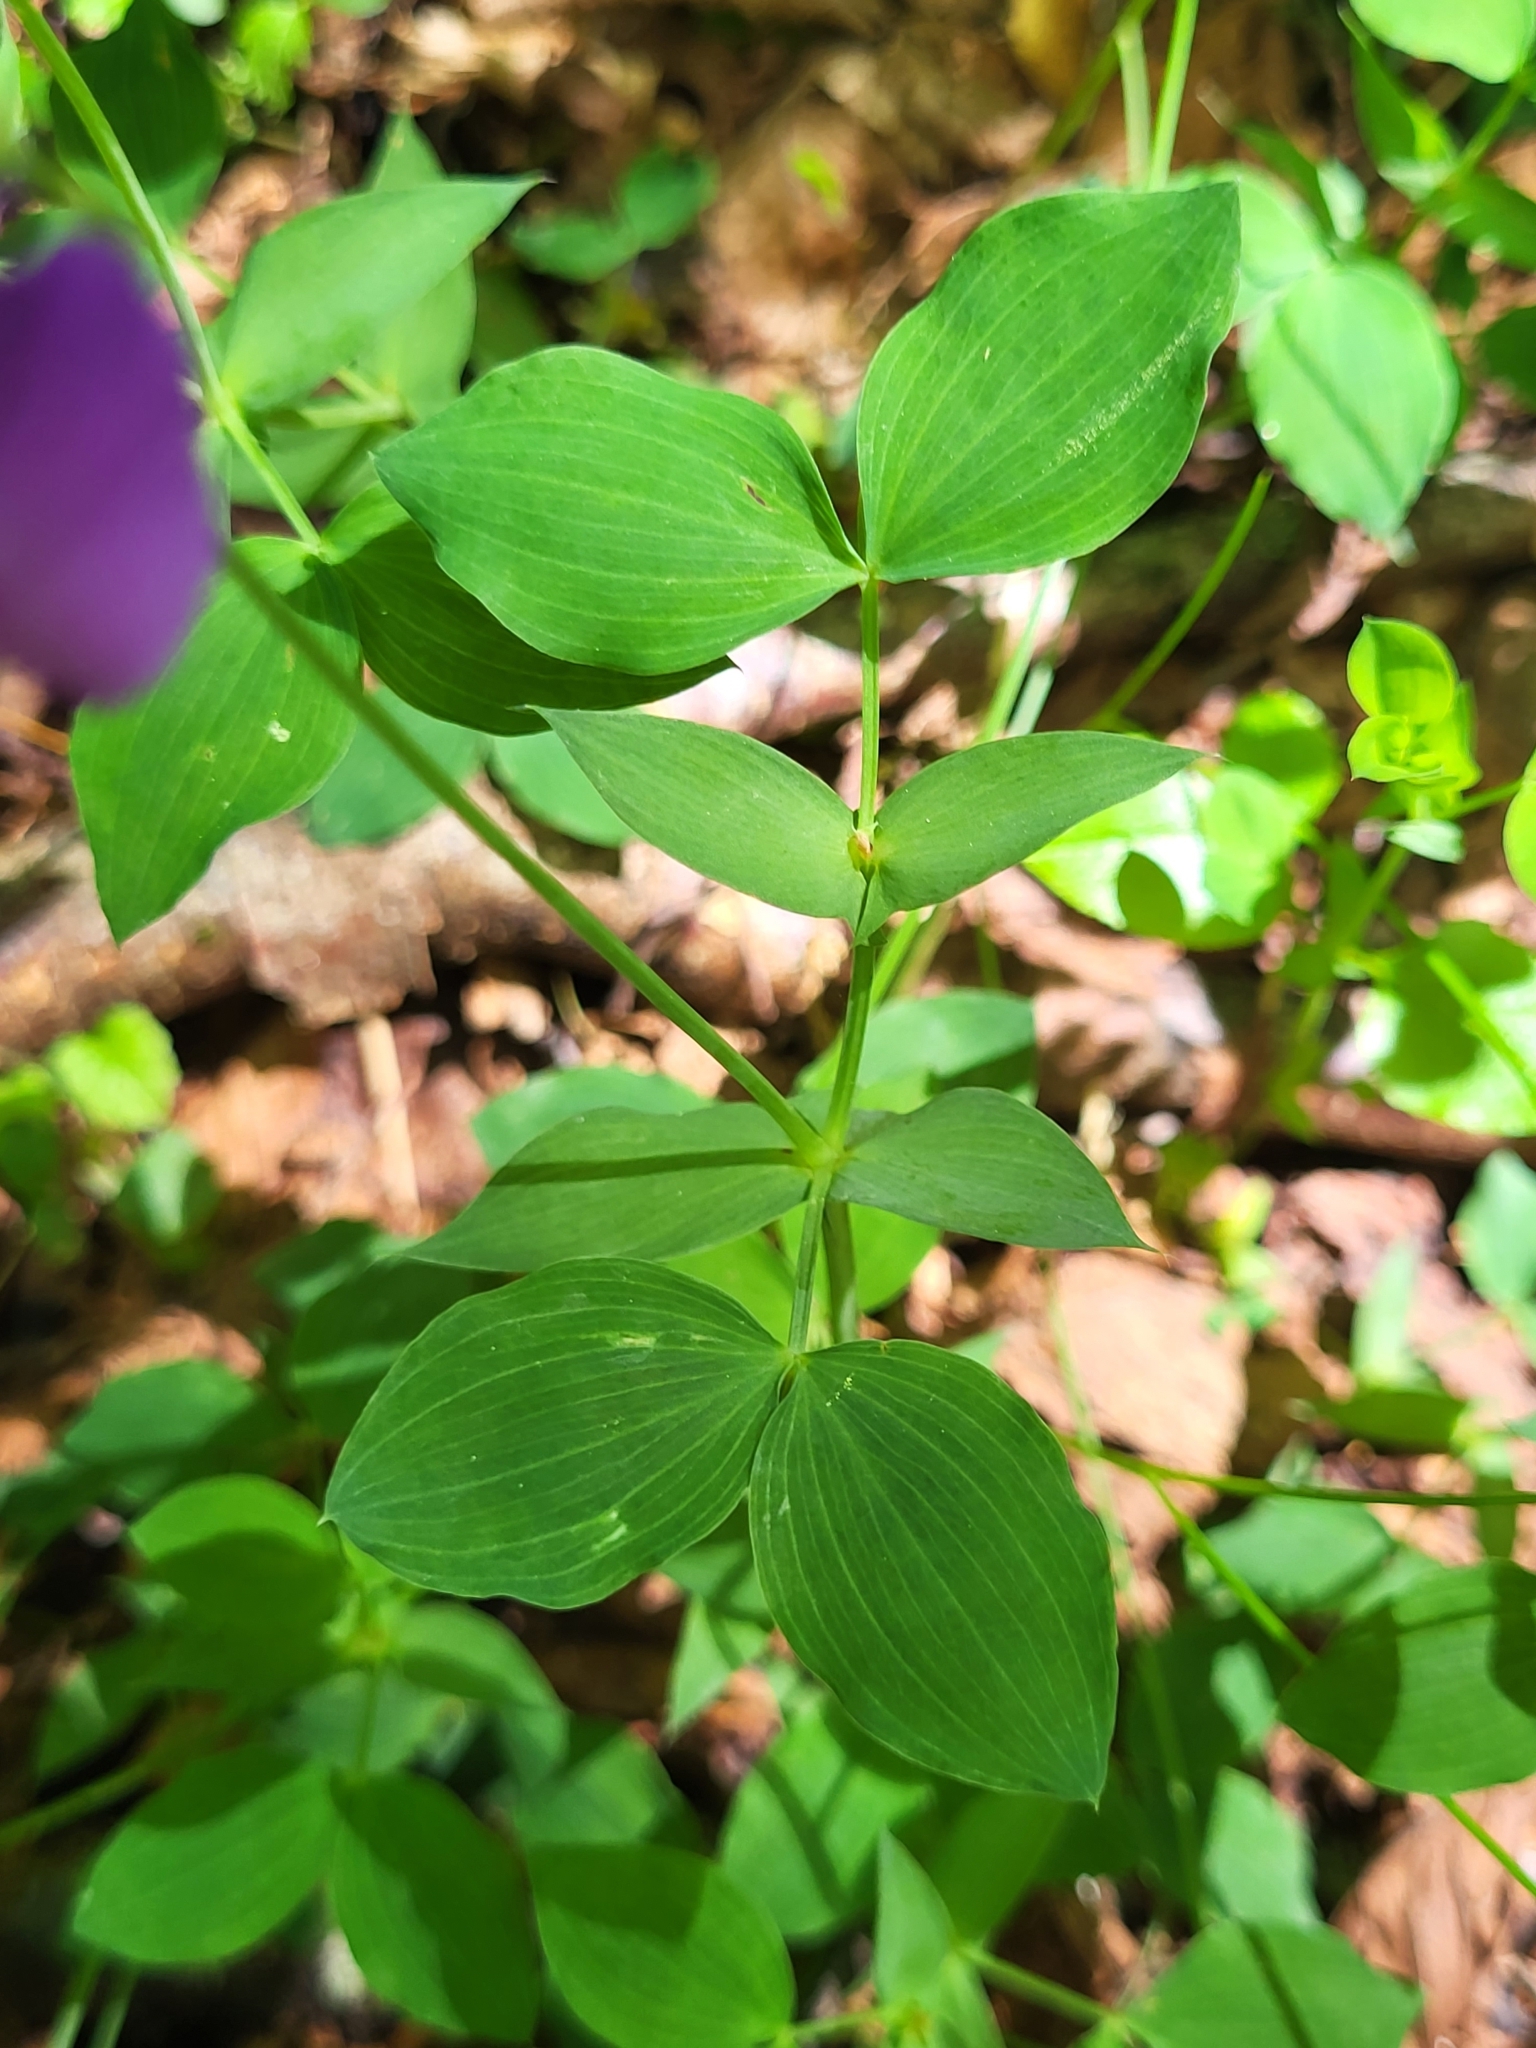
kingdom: Plantae
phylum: Tracheophyta
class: Magnoliopsida
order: Fabales
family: Fabaceae
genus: Lathyrus
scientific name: Lathyrus laxiflorus
